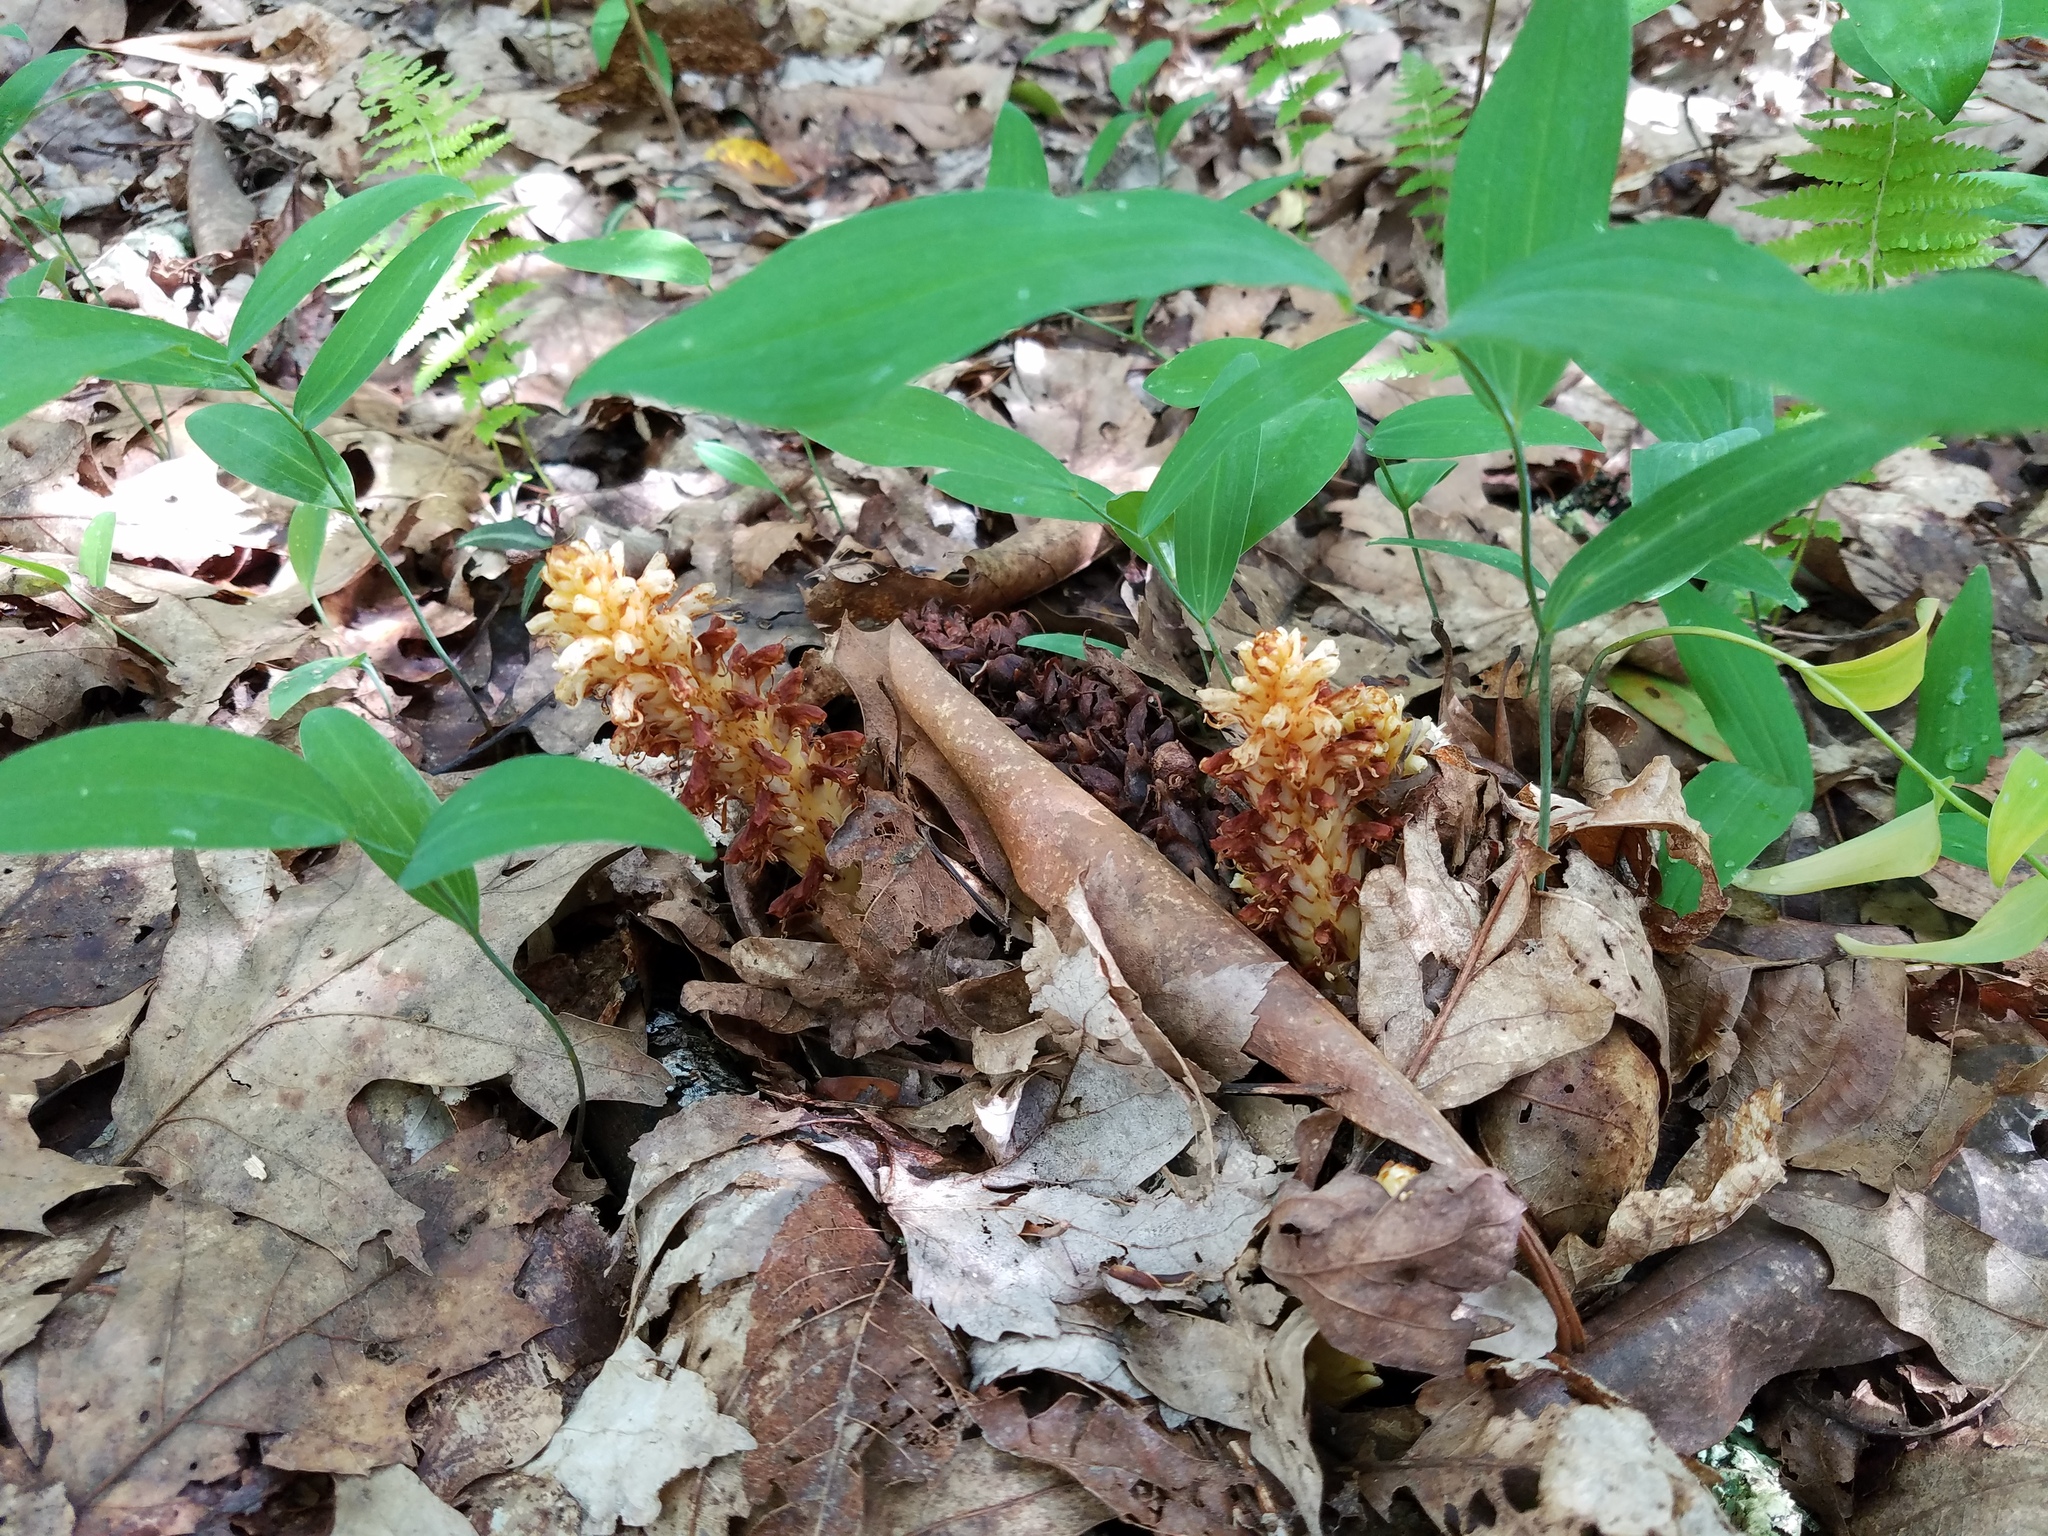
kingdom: Plantae
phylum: Tracheophyta
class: Magnoliopsida
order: Lamiales
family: Orobanchaceae
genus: Conopholis
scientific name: Conopholis americana
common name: American cancer-root
